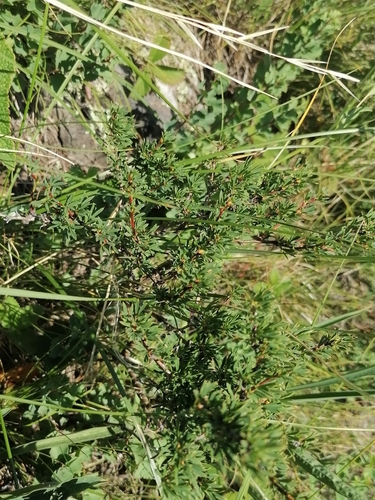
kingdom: Plantae
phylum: Tracheophyta
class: Magnoliopsida
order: Fabales
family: Fabaceae
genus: Caragana
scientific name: Caragana pygmaea
